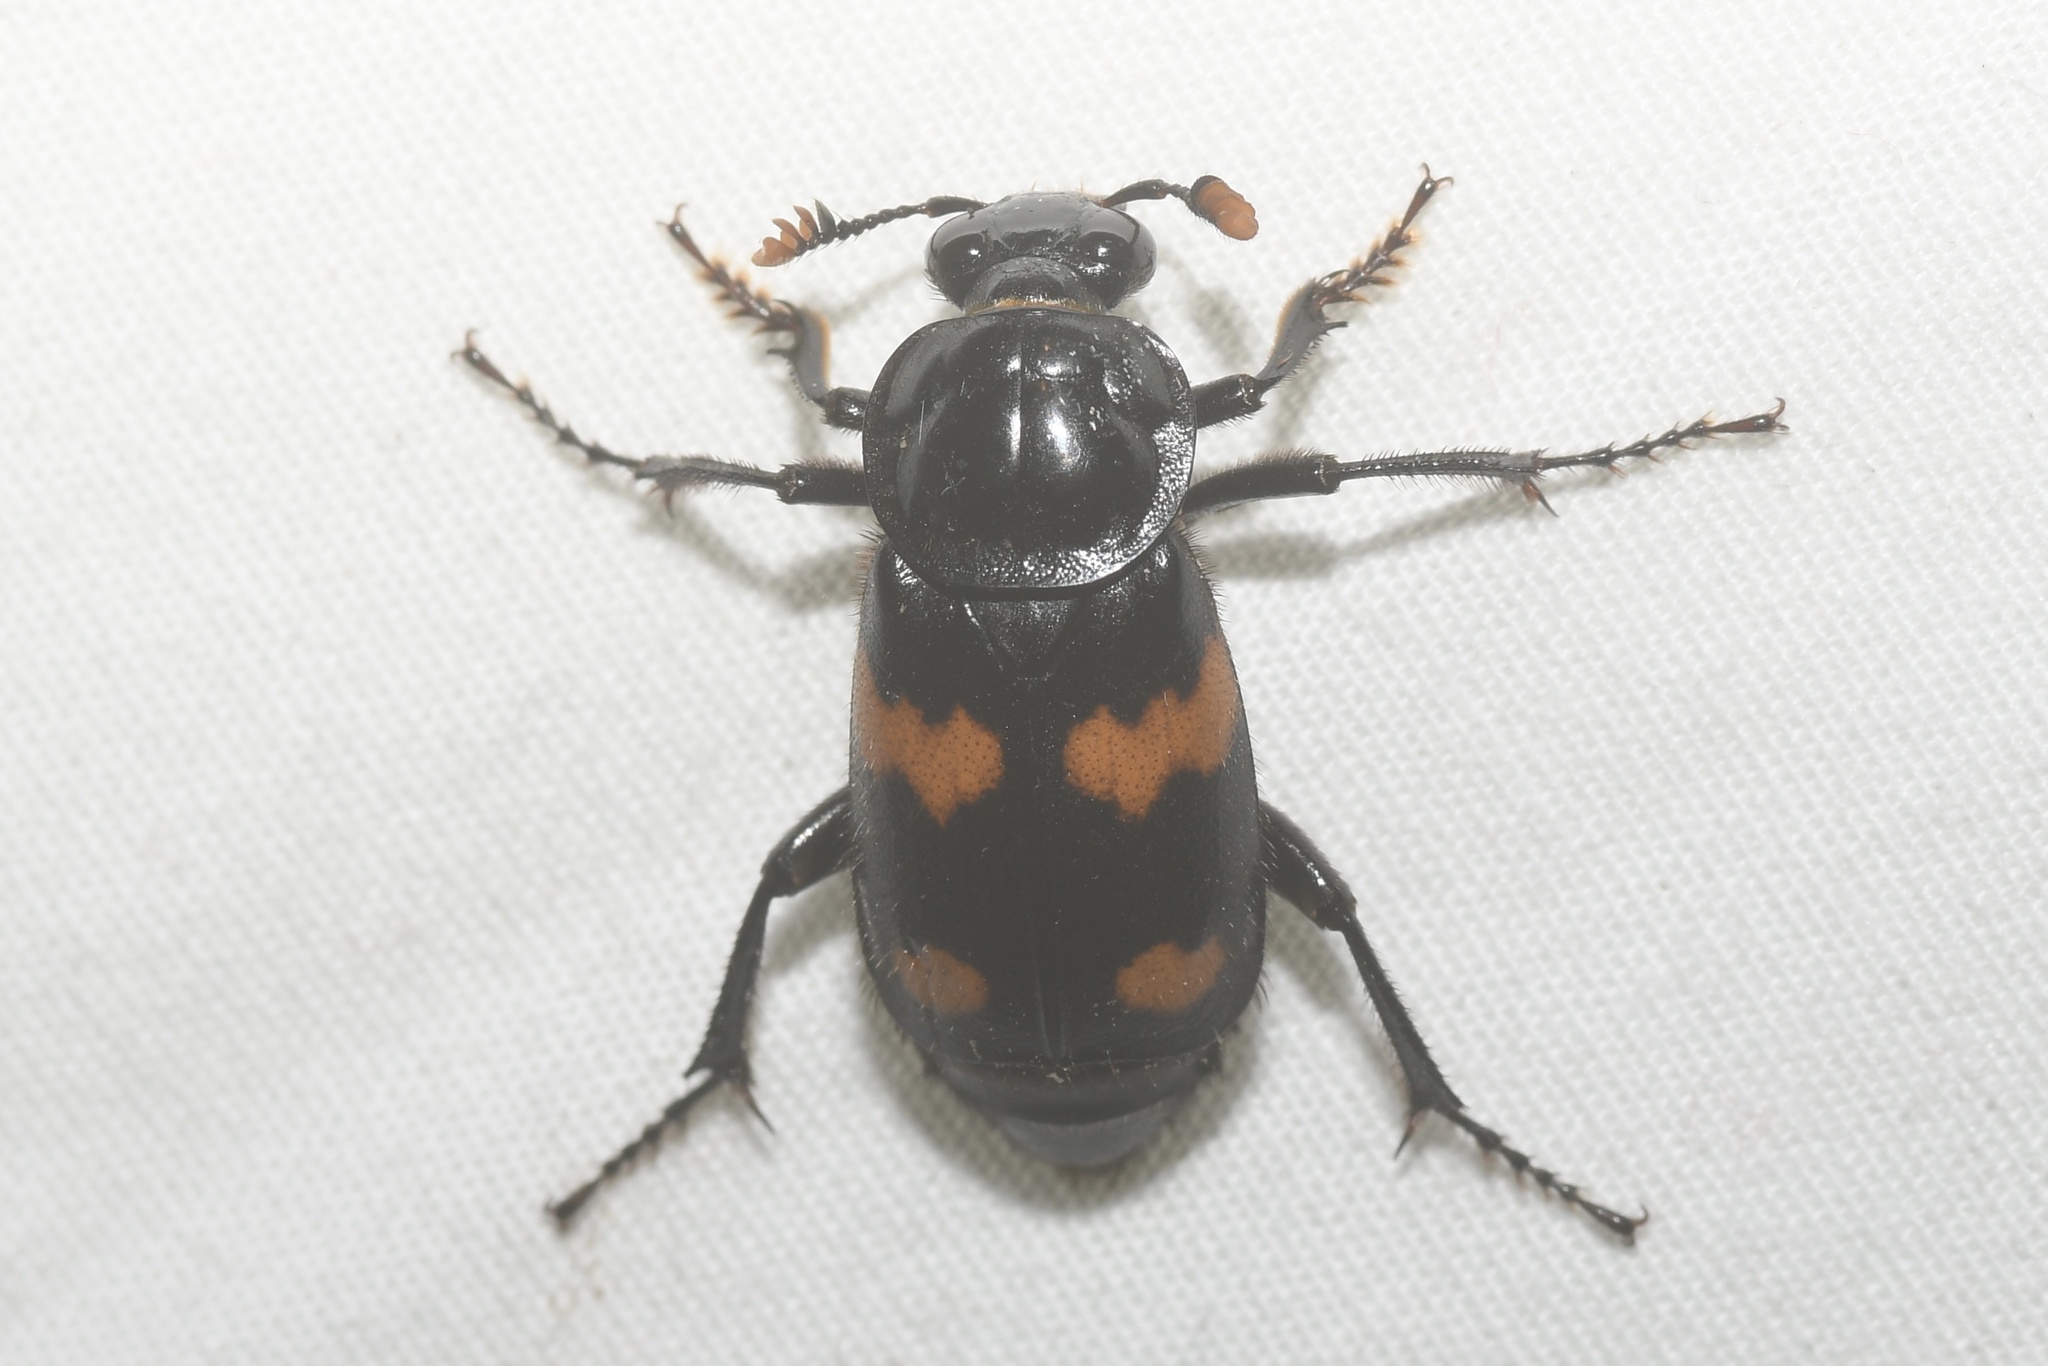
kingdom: Animalia
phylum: Arthropoda
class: Insecta
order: Coleoptera
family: Staphylinidae
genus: Nicrophorus
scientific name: Nicrophorus orbicollis
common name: Roundneck sexton beetle
